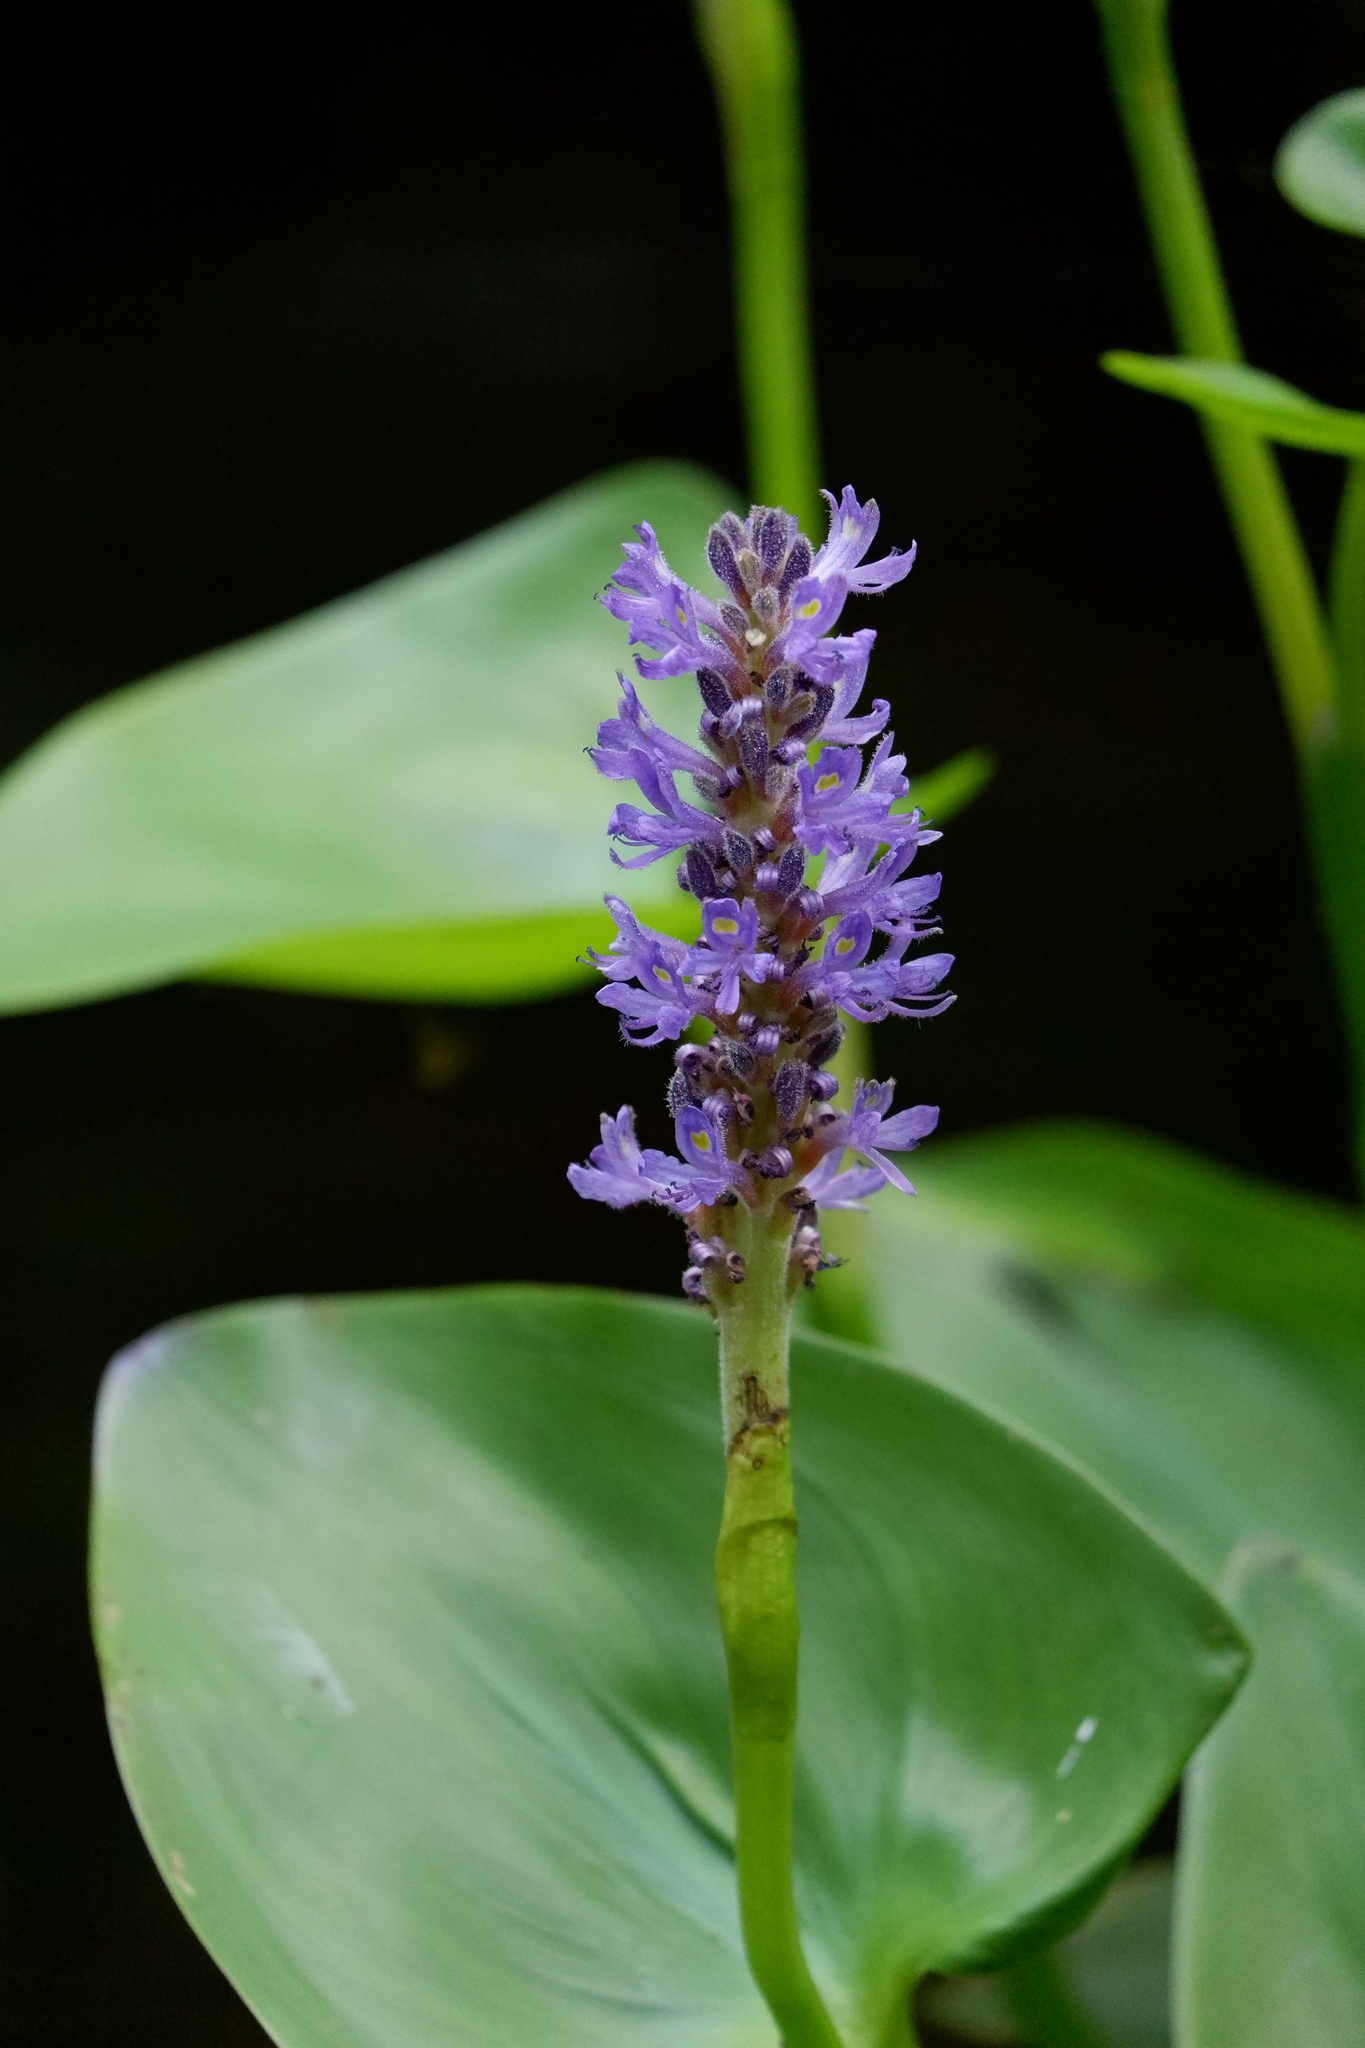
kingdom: Plantae
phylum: Tracheophyta
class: Liliopsida
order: Commelinales
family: Pontederiaceae
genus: Pontederia
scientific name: Pontederia cordata
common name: Pickerelweed
